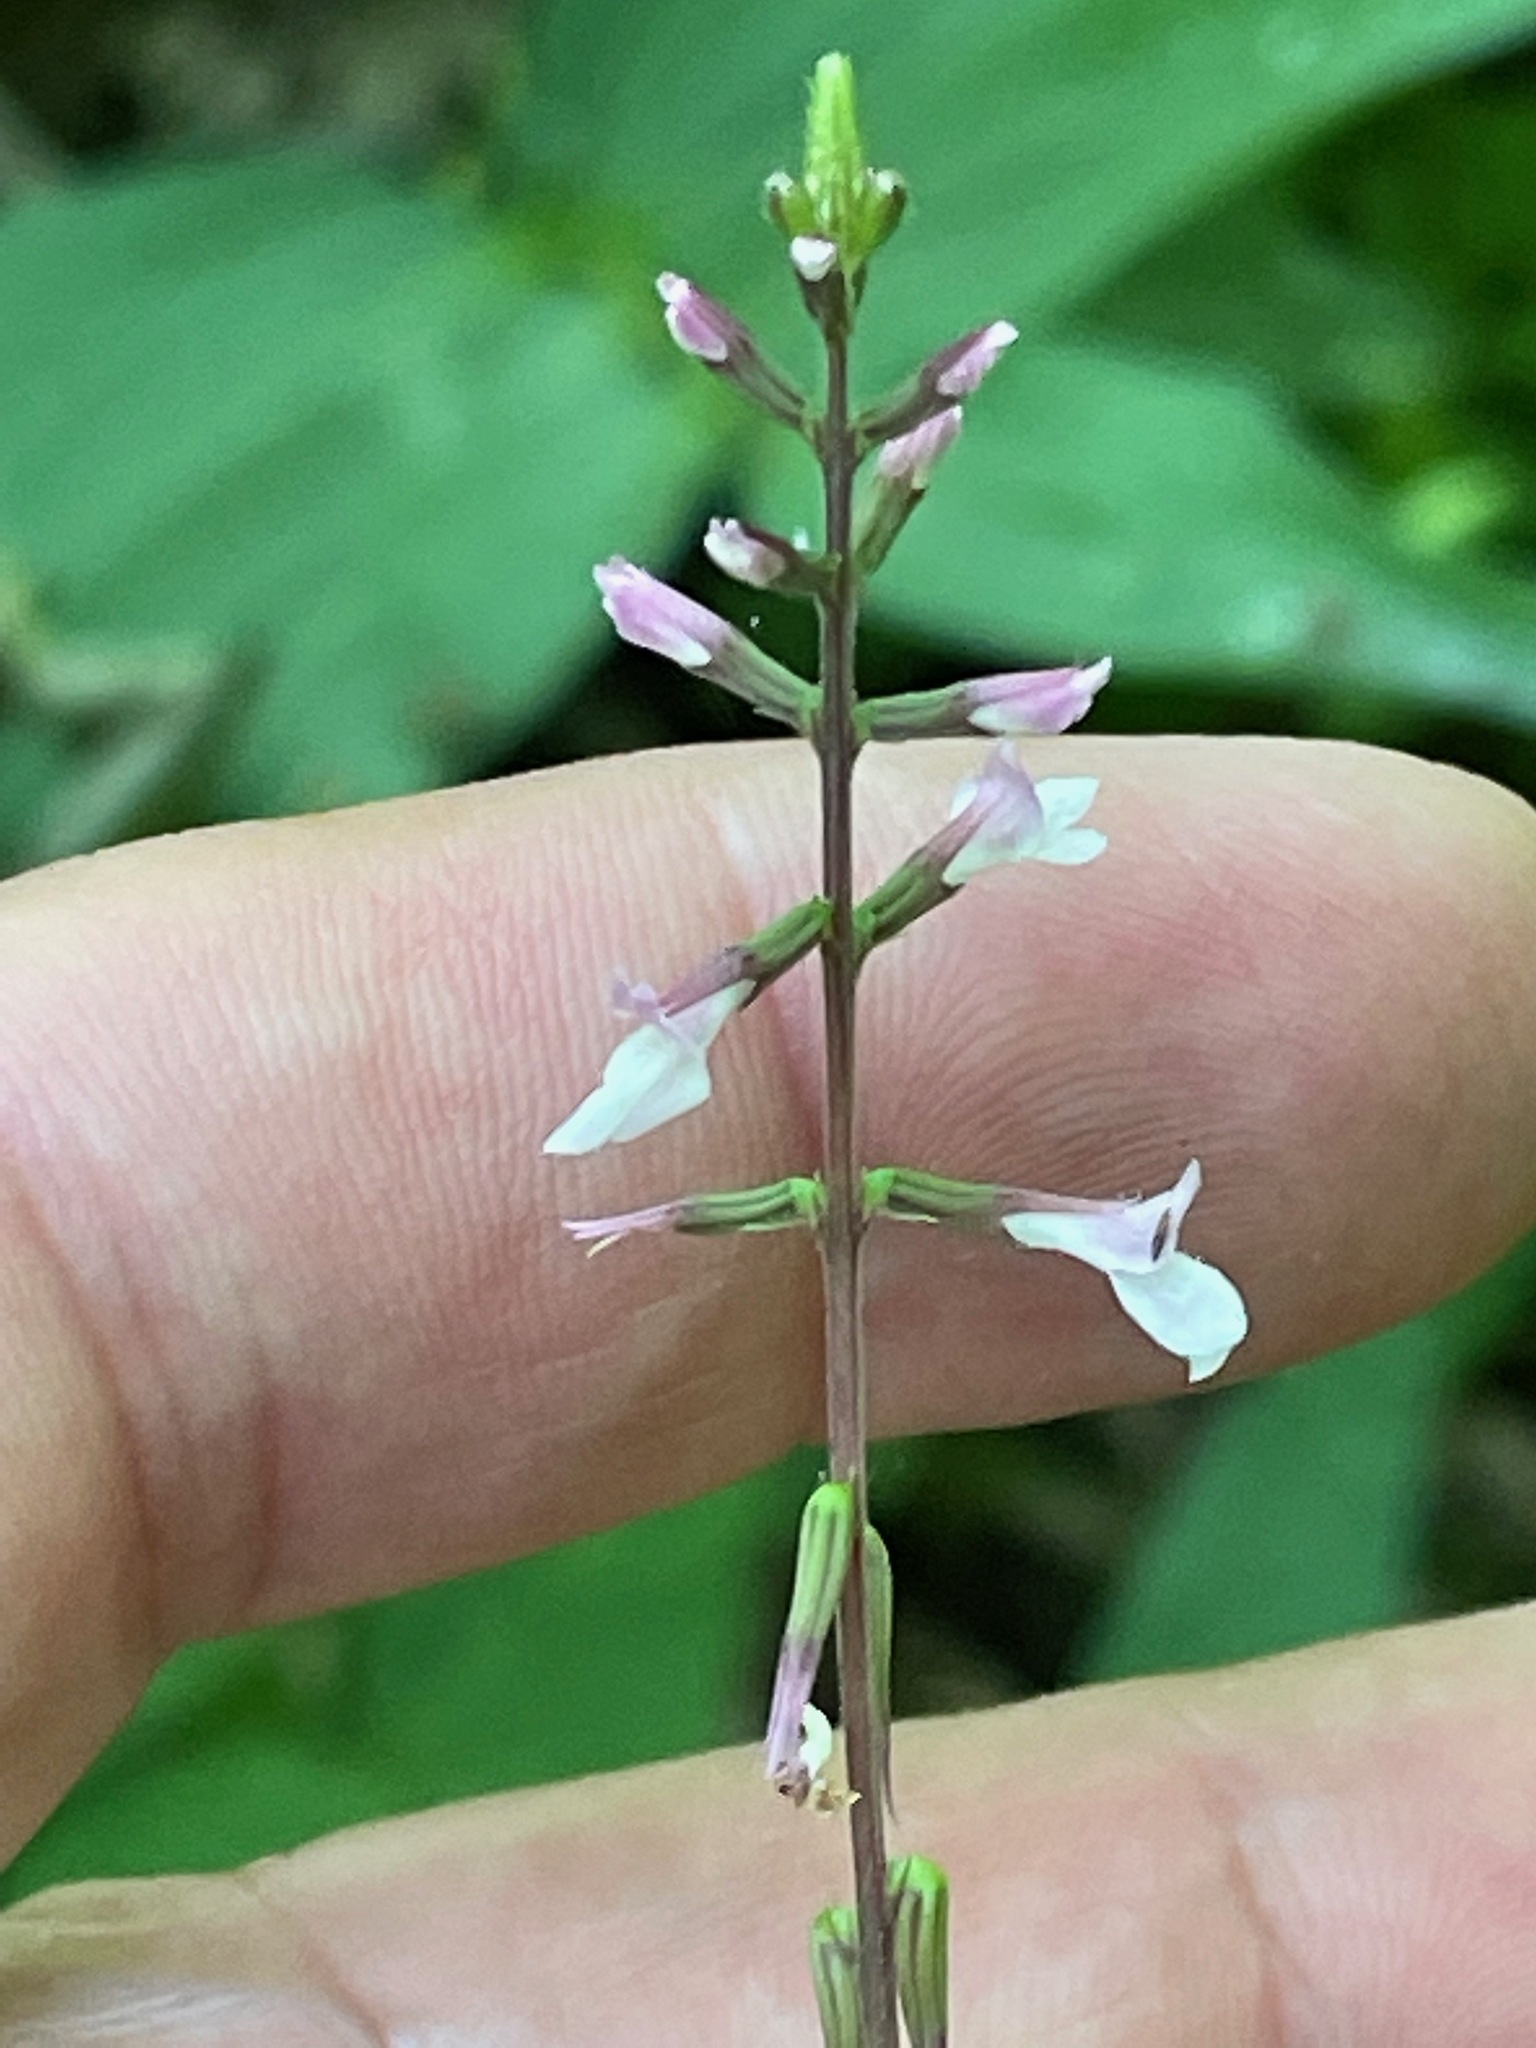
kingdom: Plantae
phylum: Tracheophyta
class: Magnoliopsida
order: Lamiales
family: Phrymaceae
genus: Phryma
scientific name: Phryma leptostachya
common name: American lopseed
